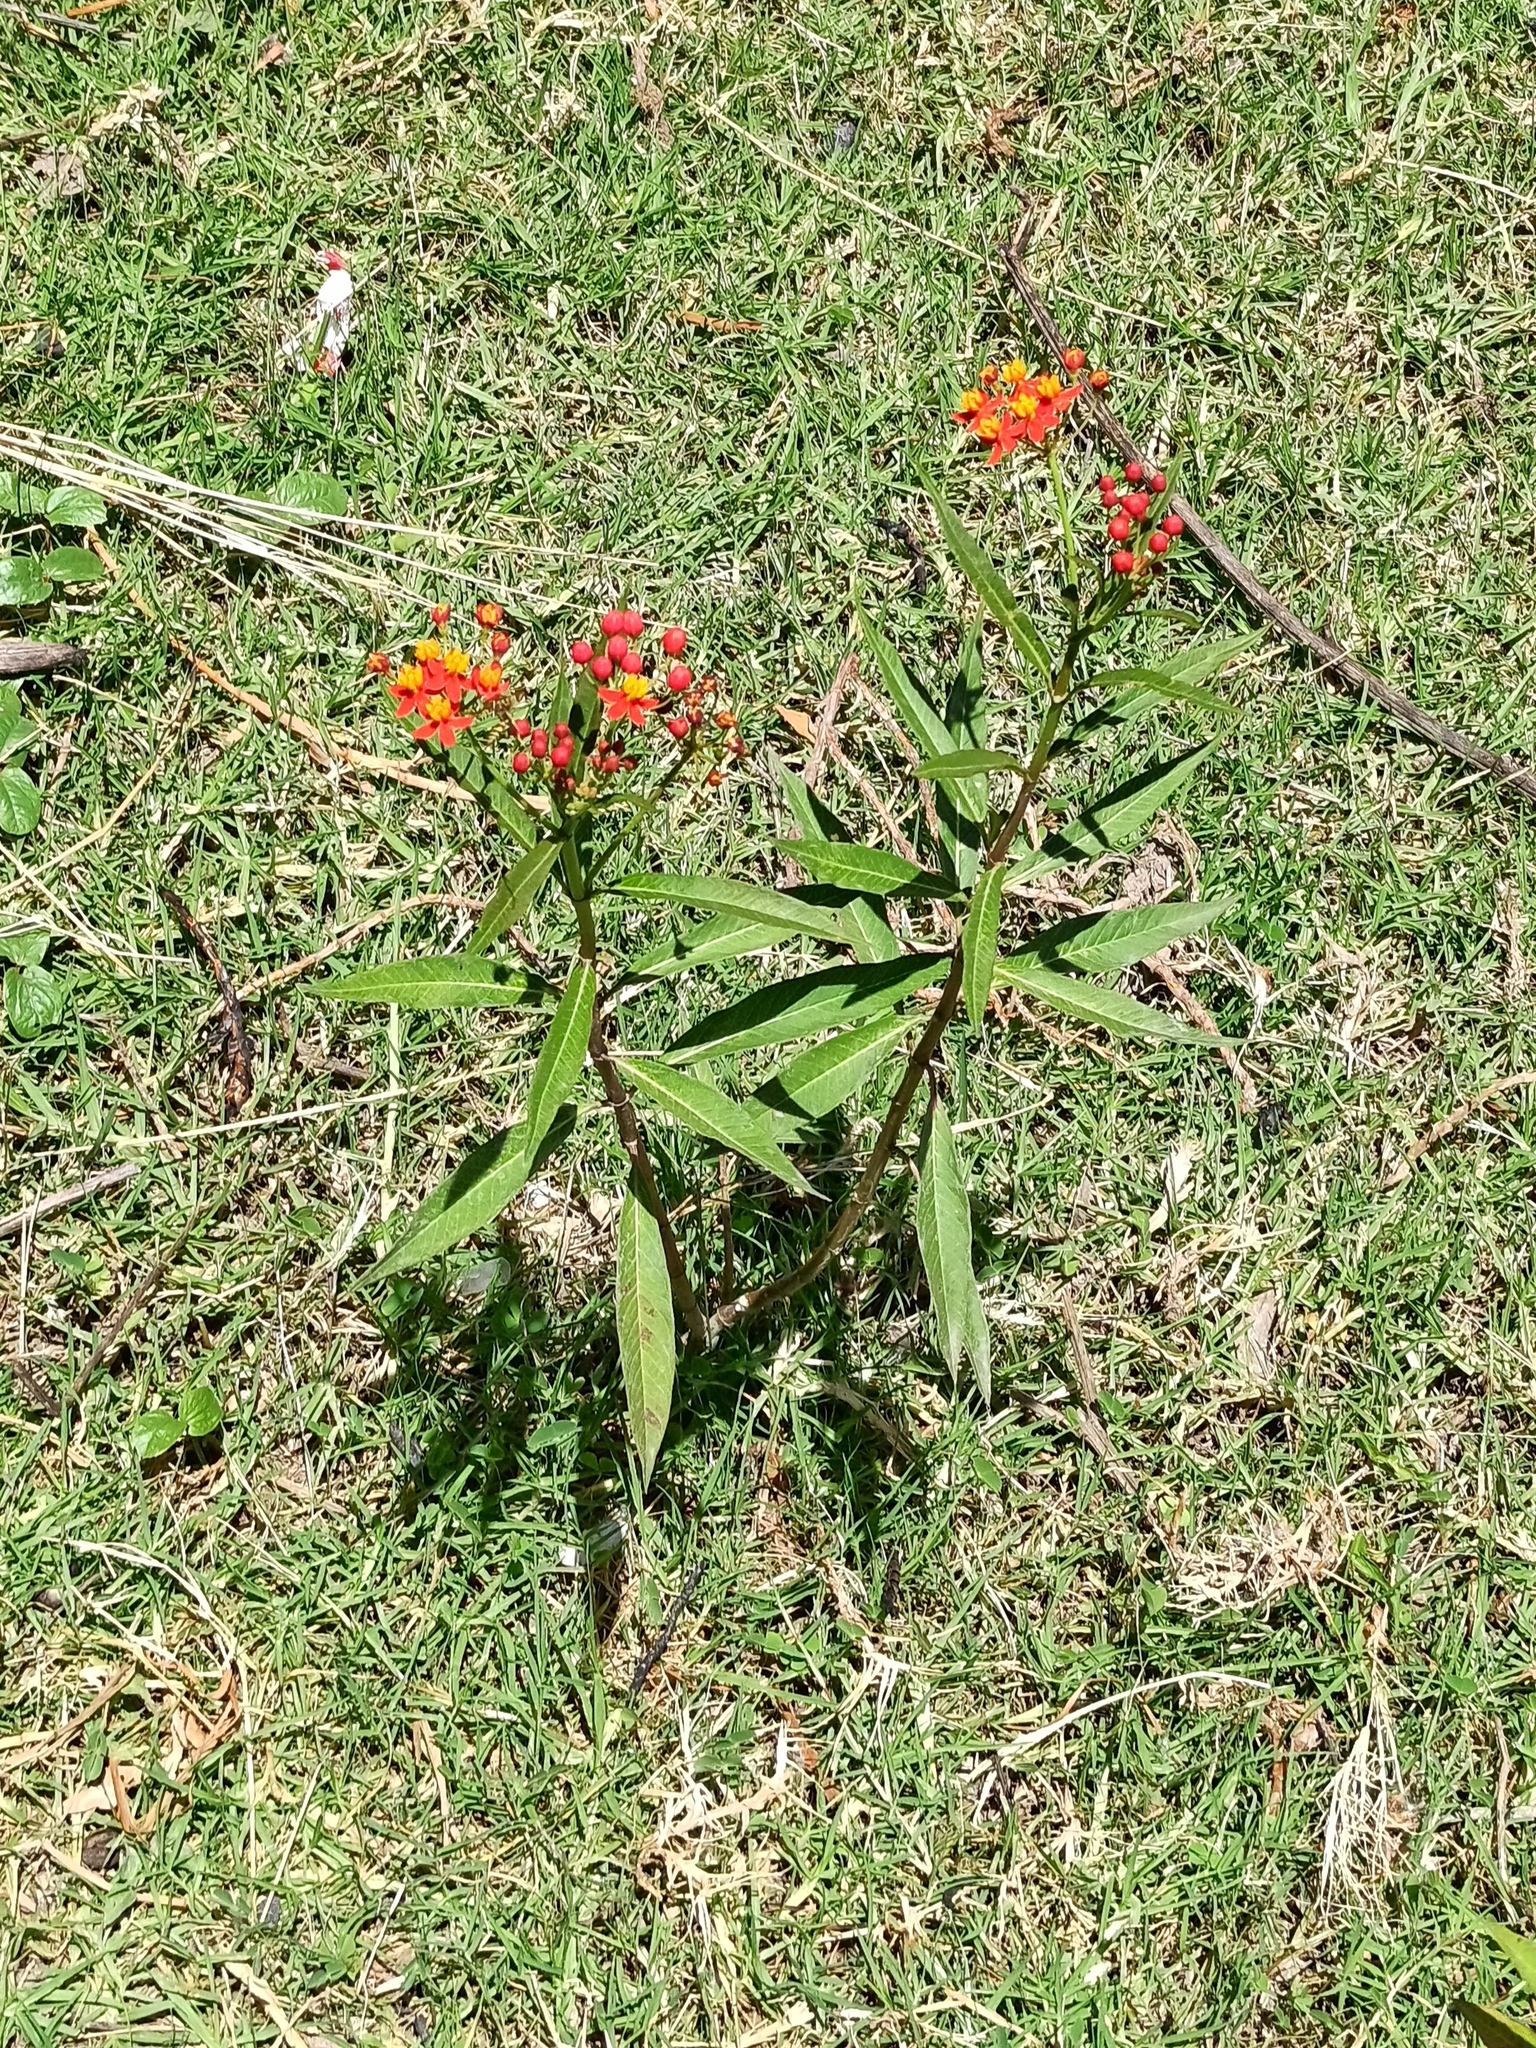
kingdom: Plantae
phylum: Tracheophyta
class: Magnoliopsida
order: Gentianales
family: Apocynaceae
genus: Asclepias
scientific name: Asclepias curassavica
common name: Bloodflower
